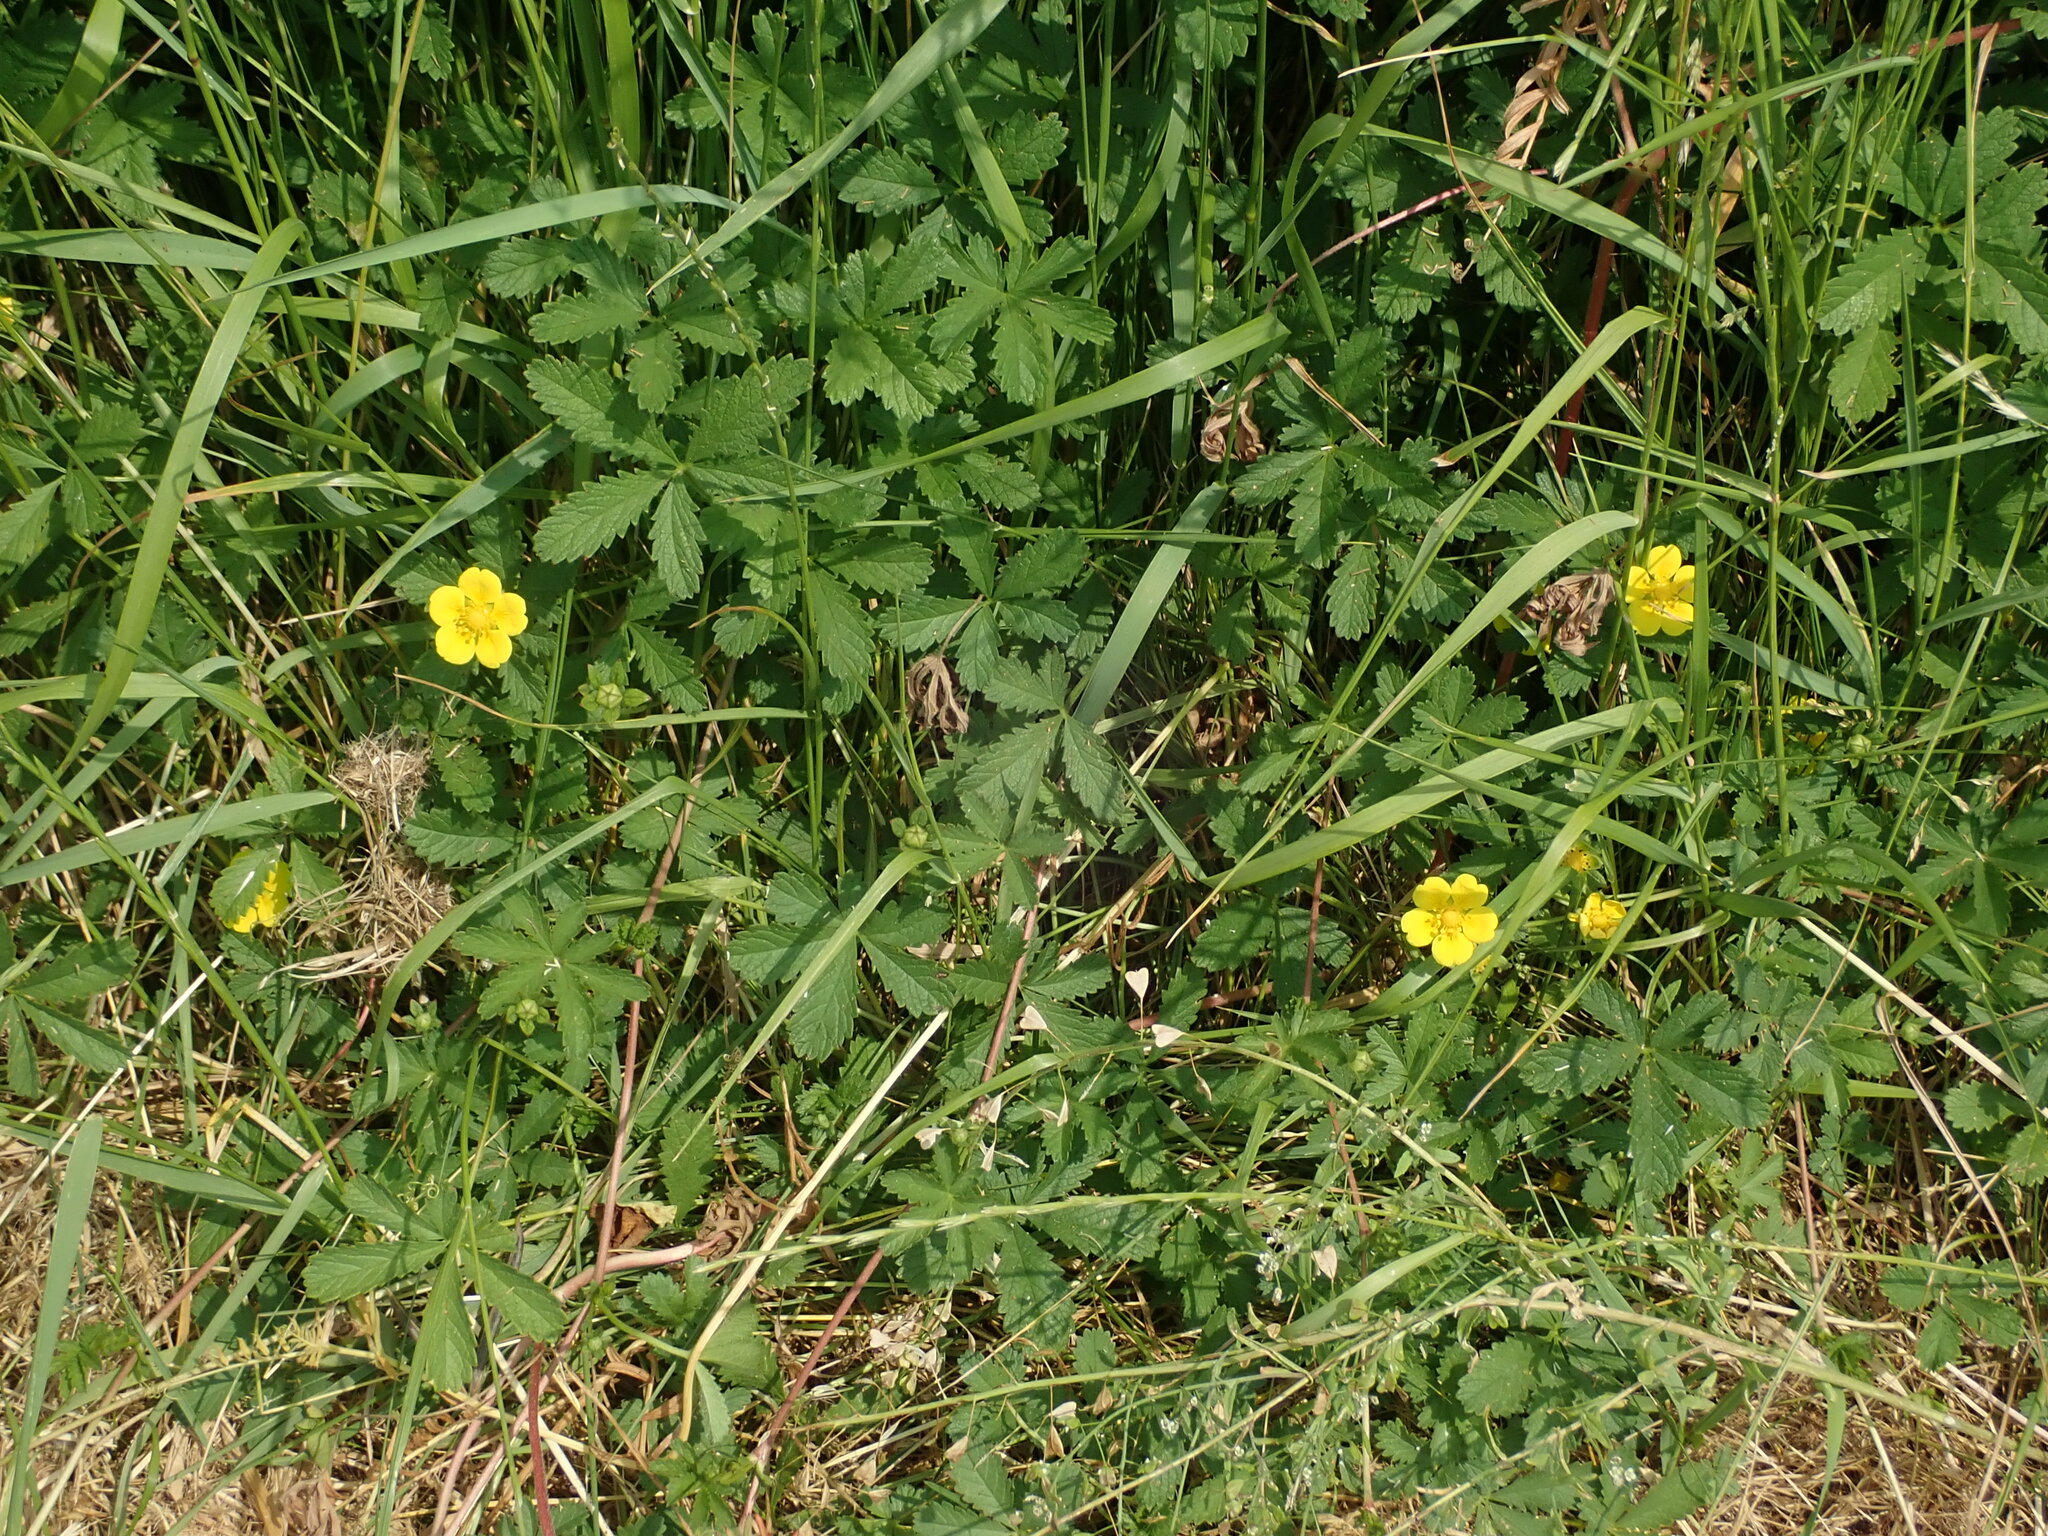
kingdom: Plantae
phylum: Tracheophyta
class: Magnoliopsida
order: Rosales
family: Rosaceae
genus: Potentilla
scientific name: Potentilla reptans
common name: Creeping cinquefoil
